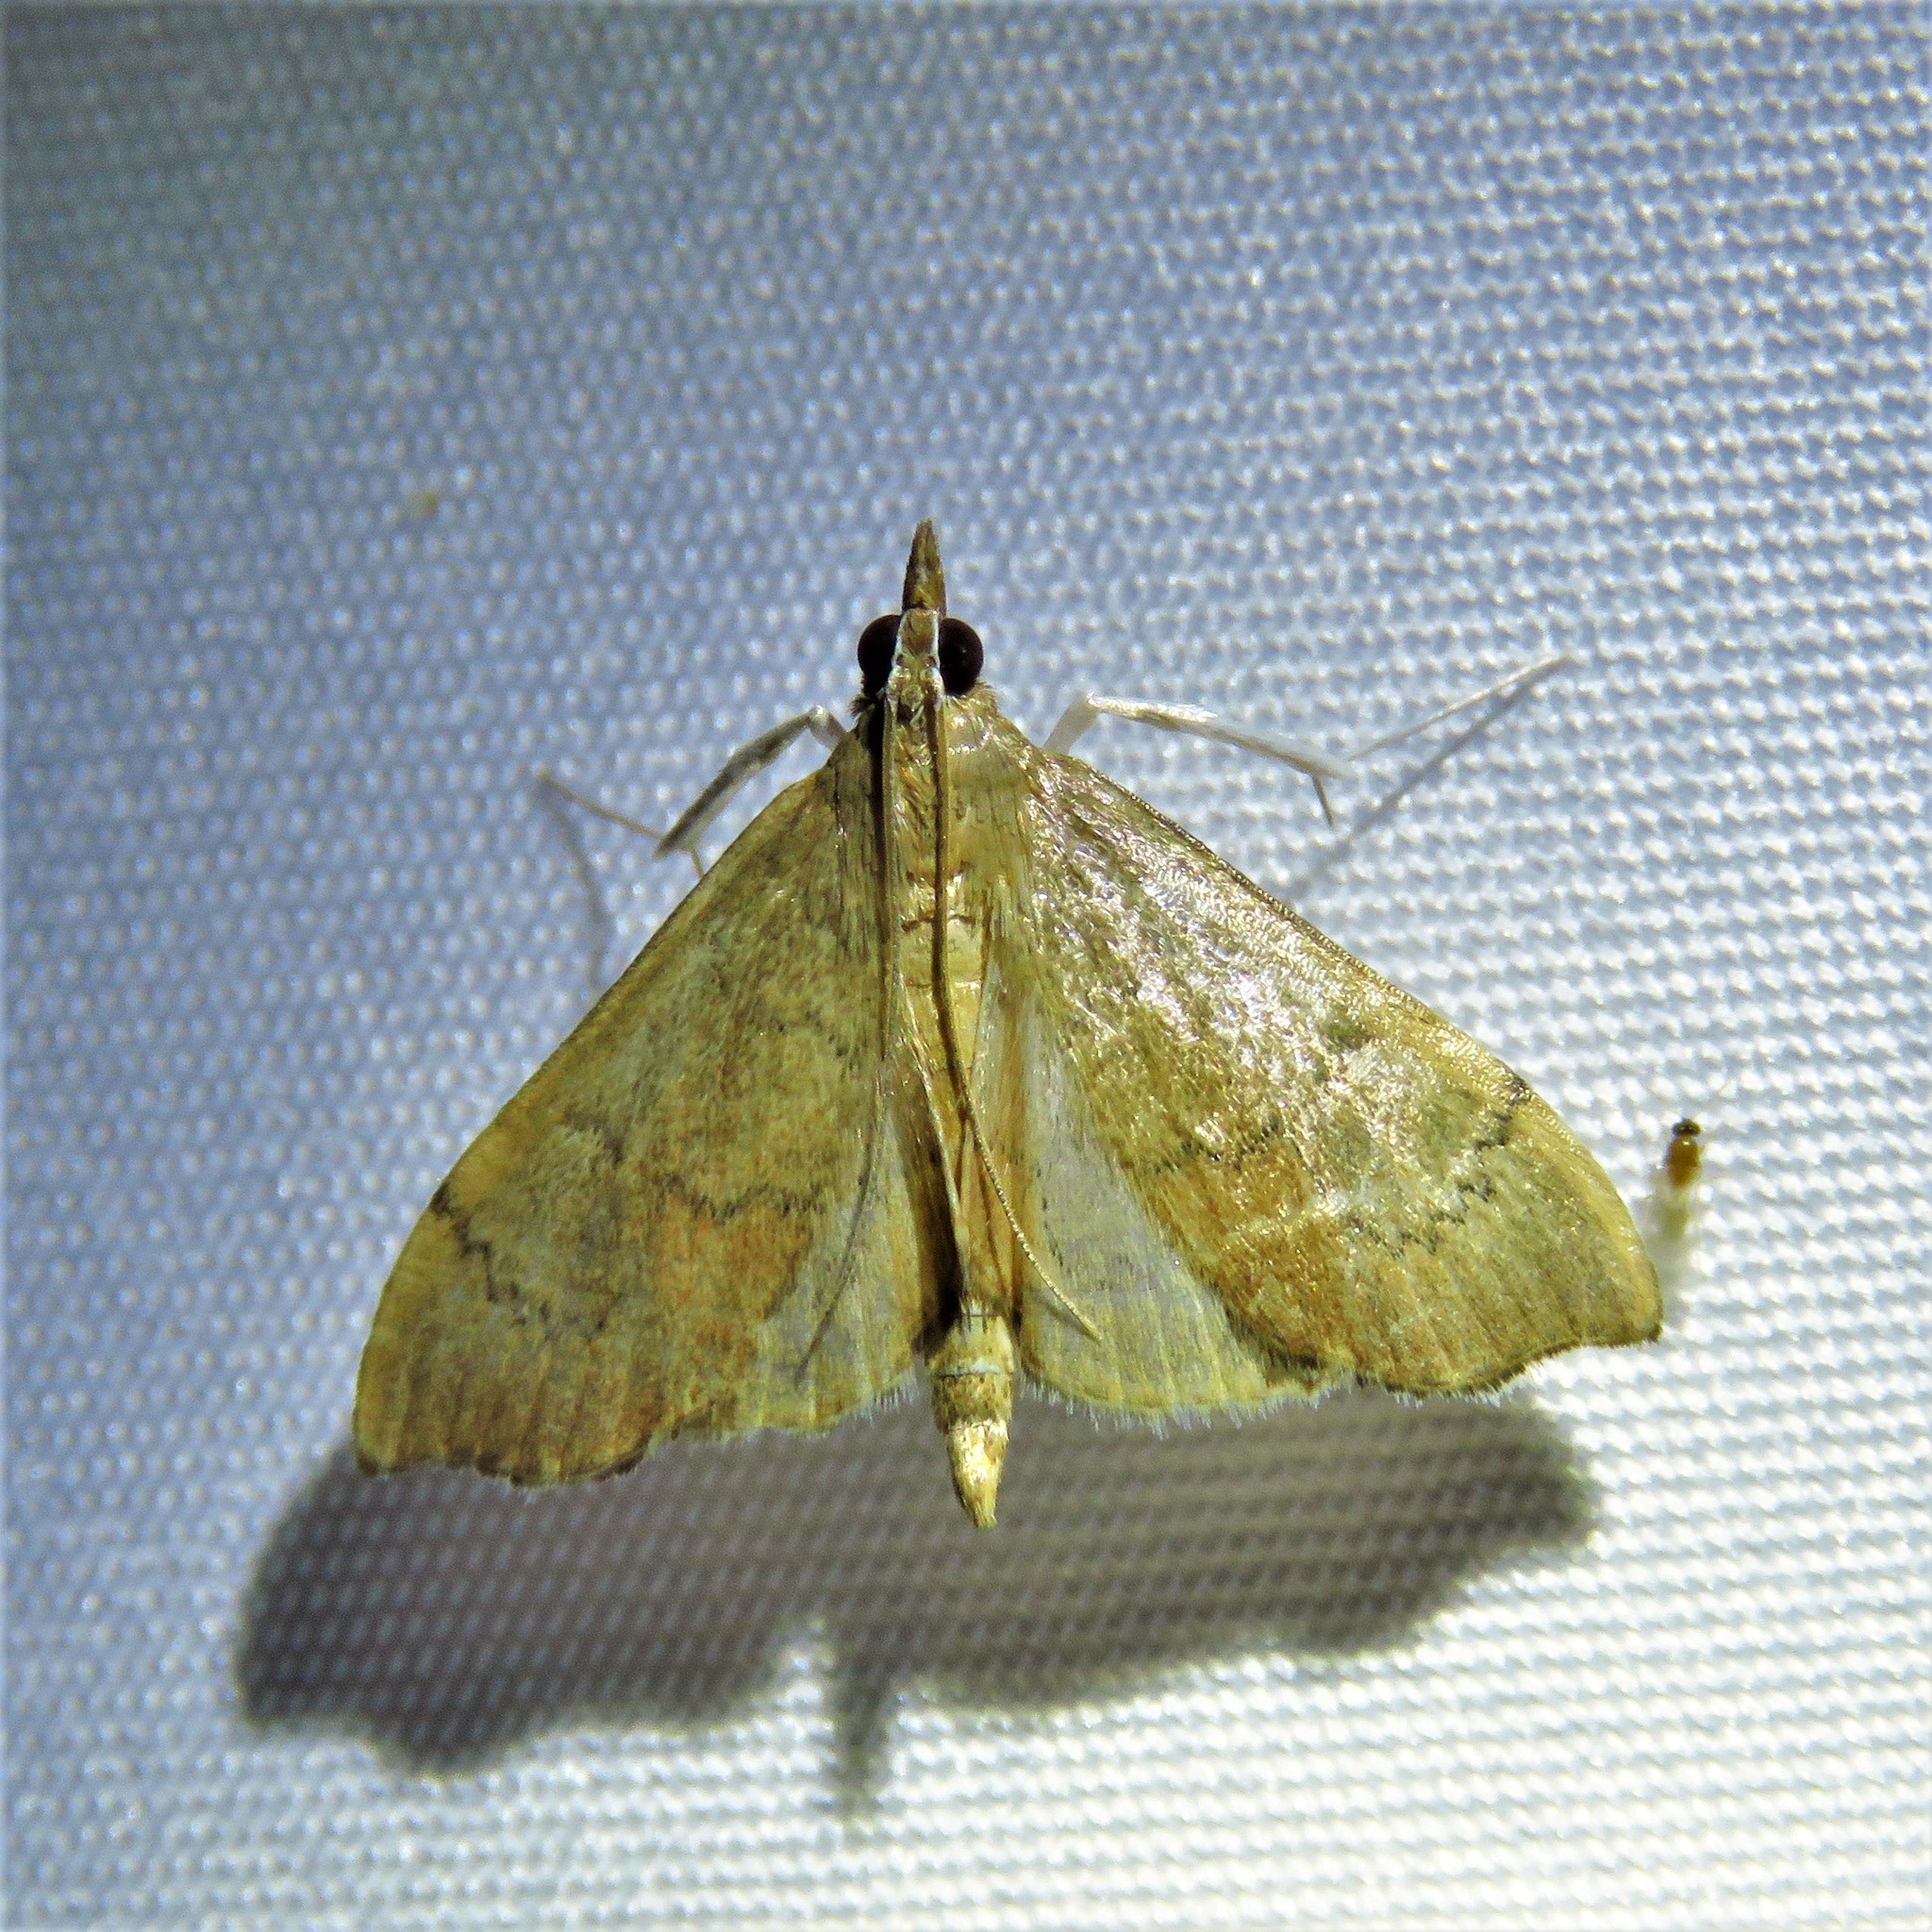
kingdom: Animalia
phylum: Arthropoda
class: Insecta
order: Lepidoptera
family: Crambidae
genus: Sericoplaga
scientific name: Sericoplaga externalis
